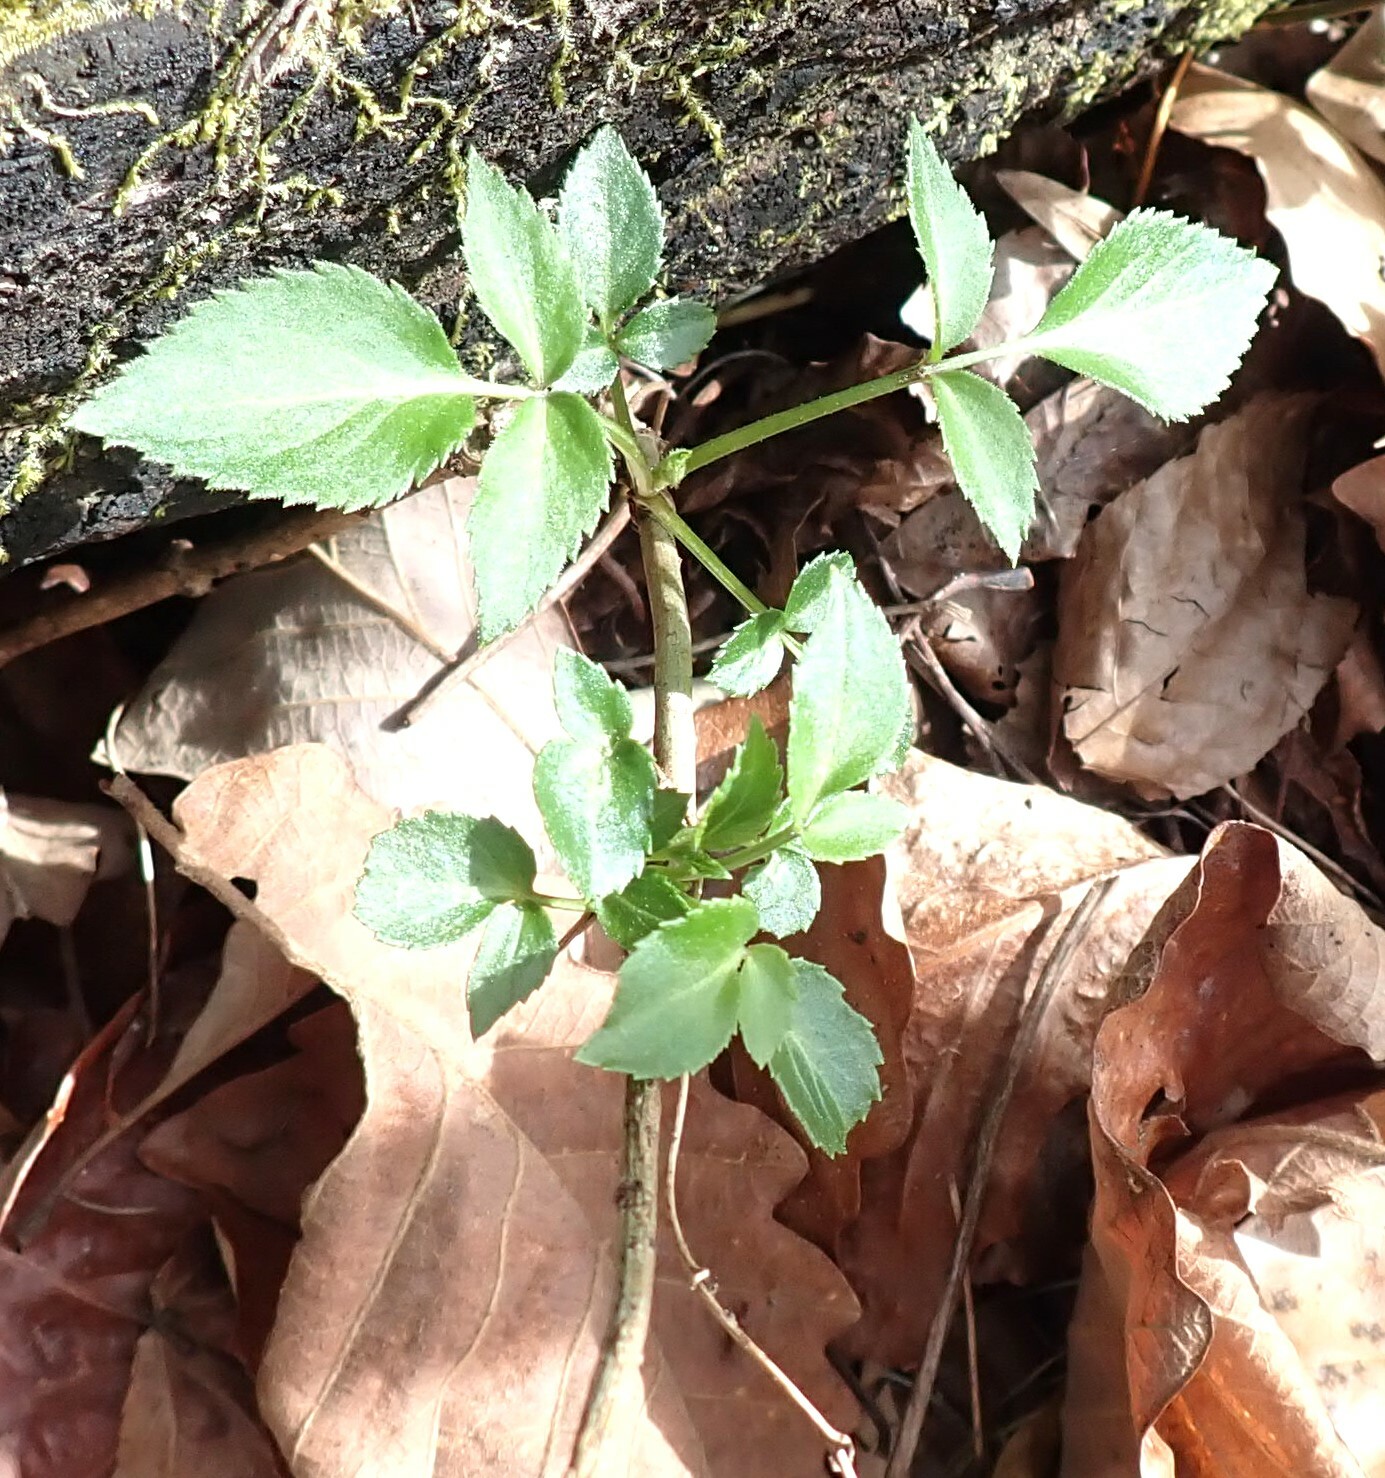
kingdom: Plantae
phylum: Tracheophyta
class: Magnoliopsida
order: Dipsacales
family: Viburnaceae
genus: Sambucus
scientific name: Sambucus nigra
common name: Elder
